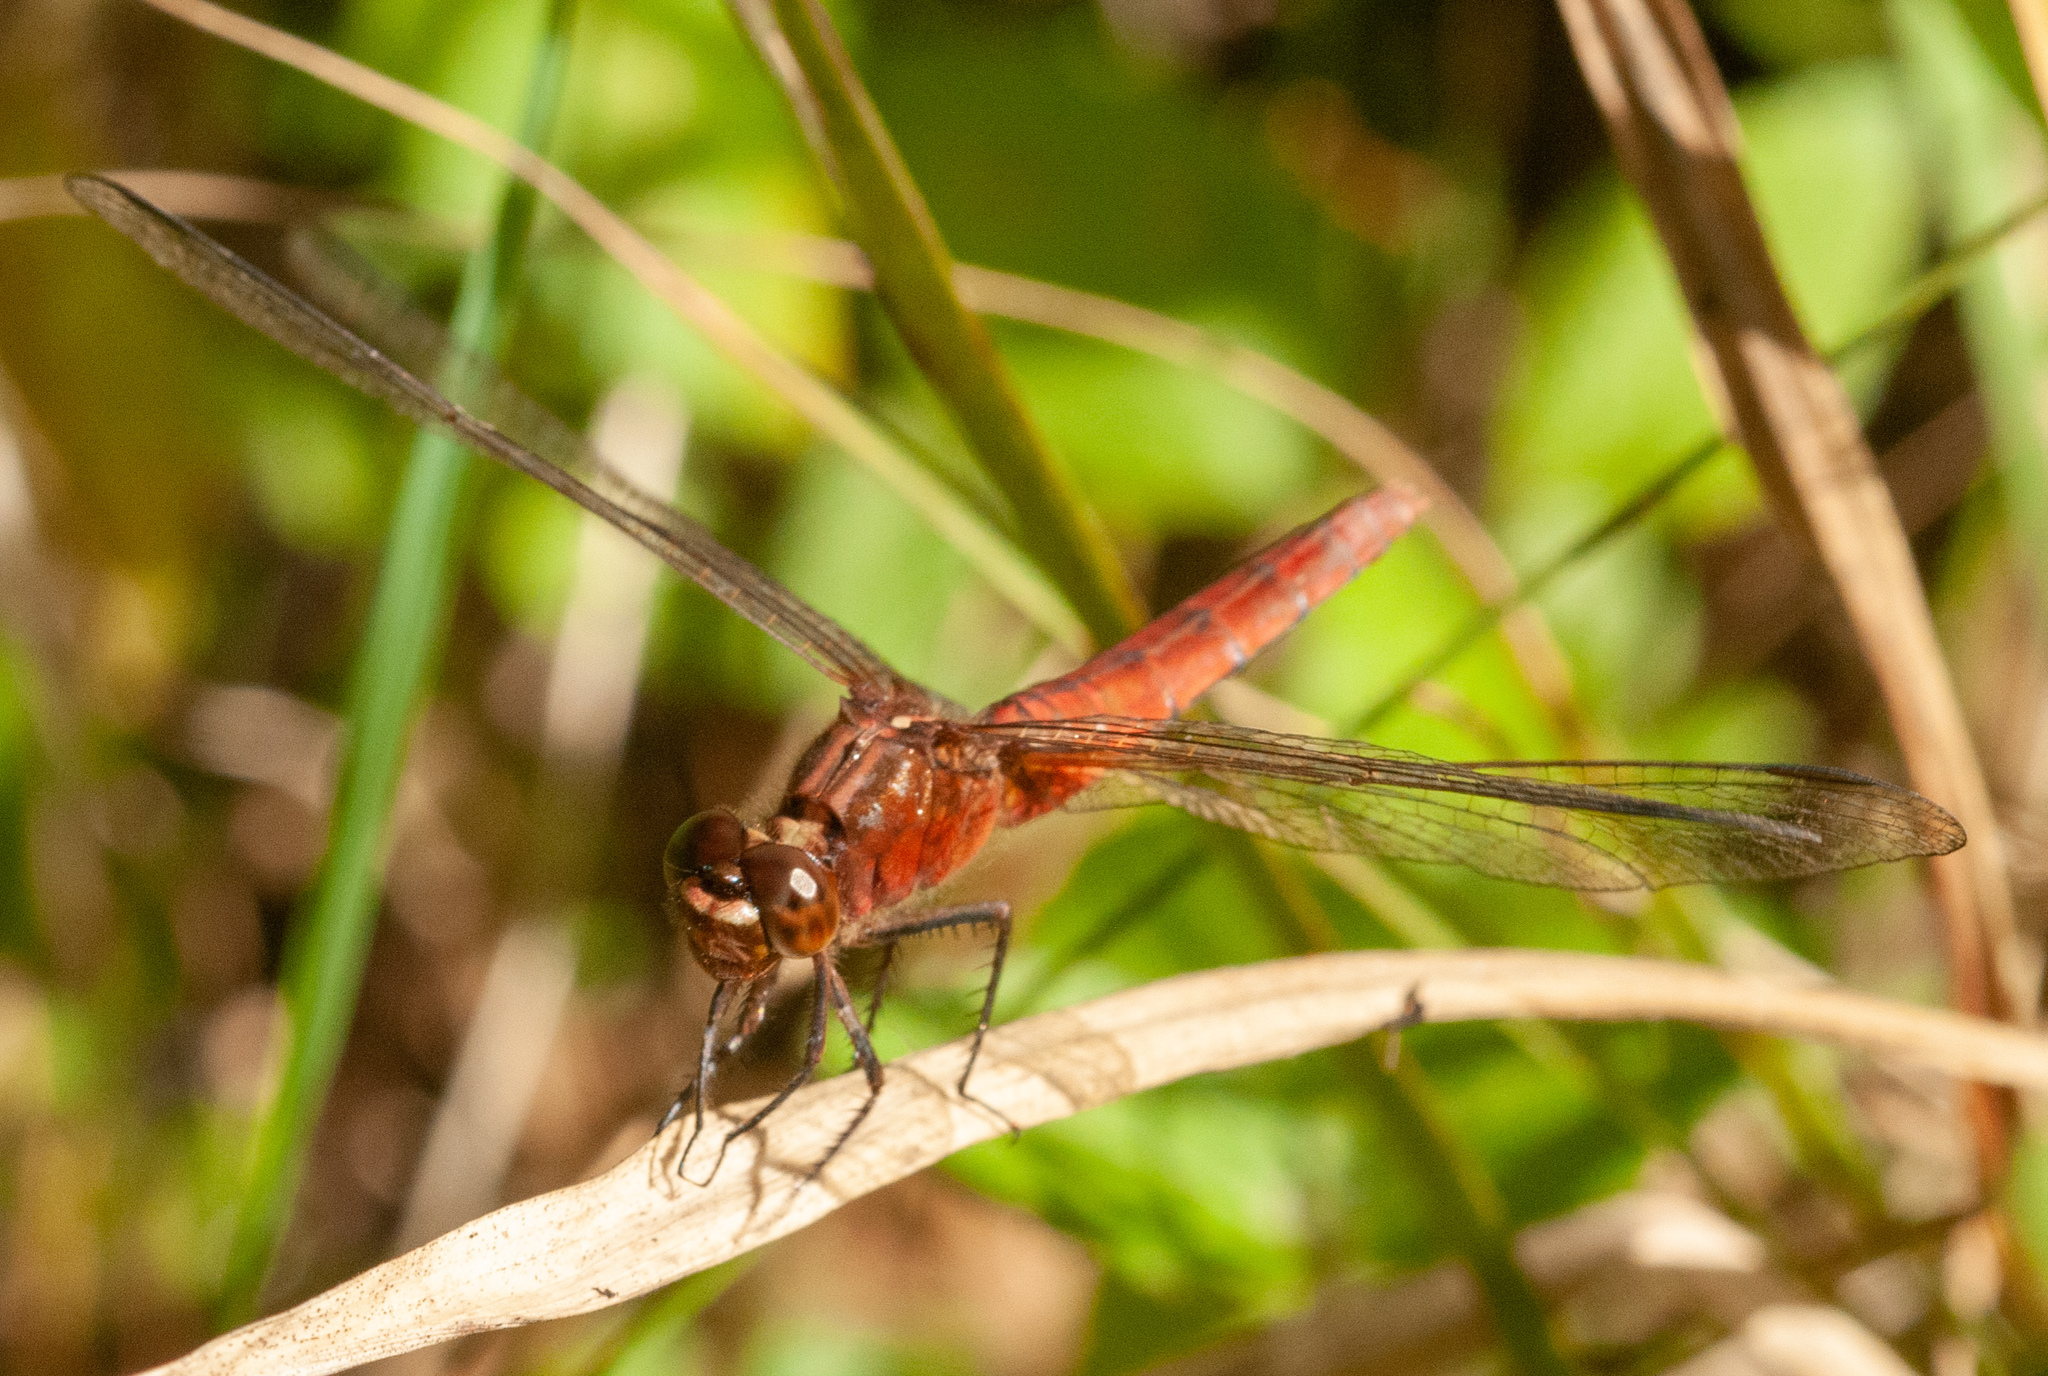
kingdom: Animalia
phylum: Arthropoda
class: Insecta
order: Odonata
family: Libellulidae
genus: Rhodothemis
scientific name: Rhodothemis lieftincki
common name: Red arrow
